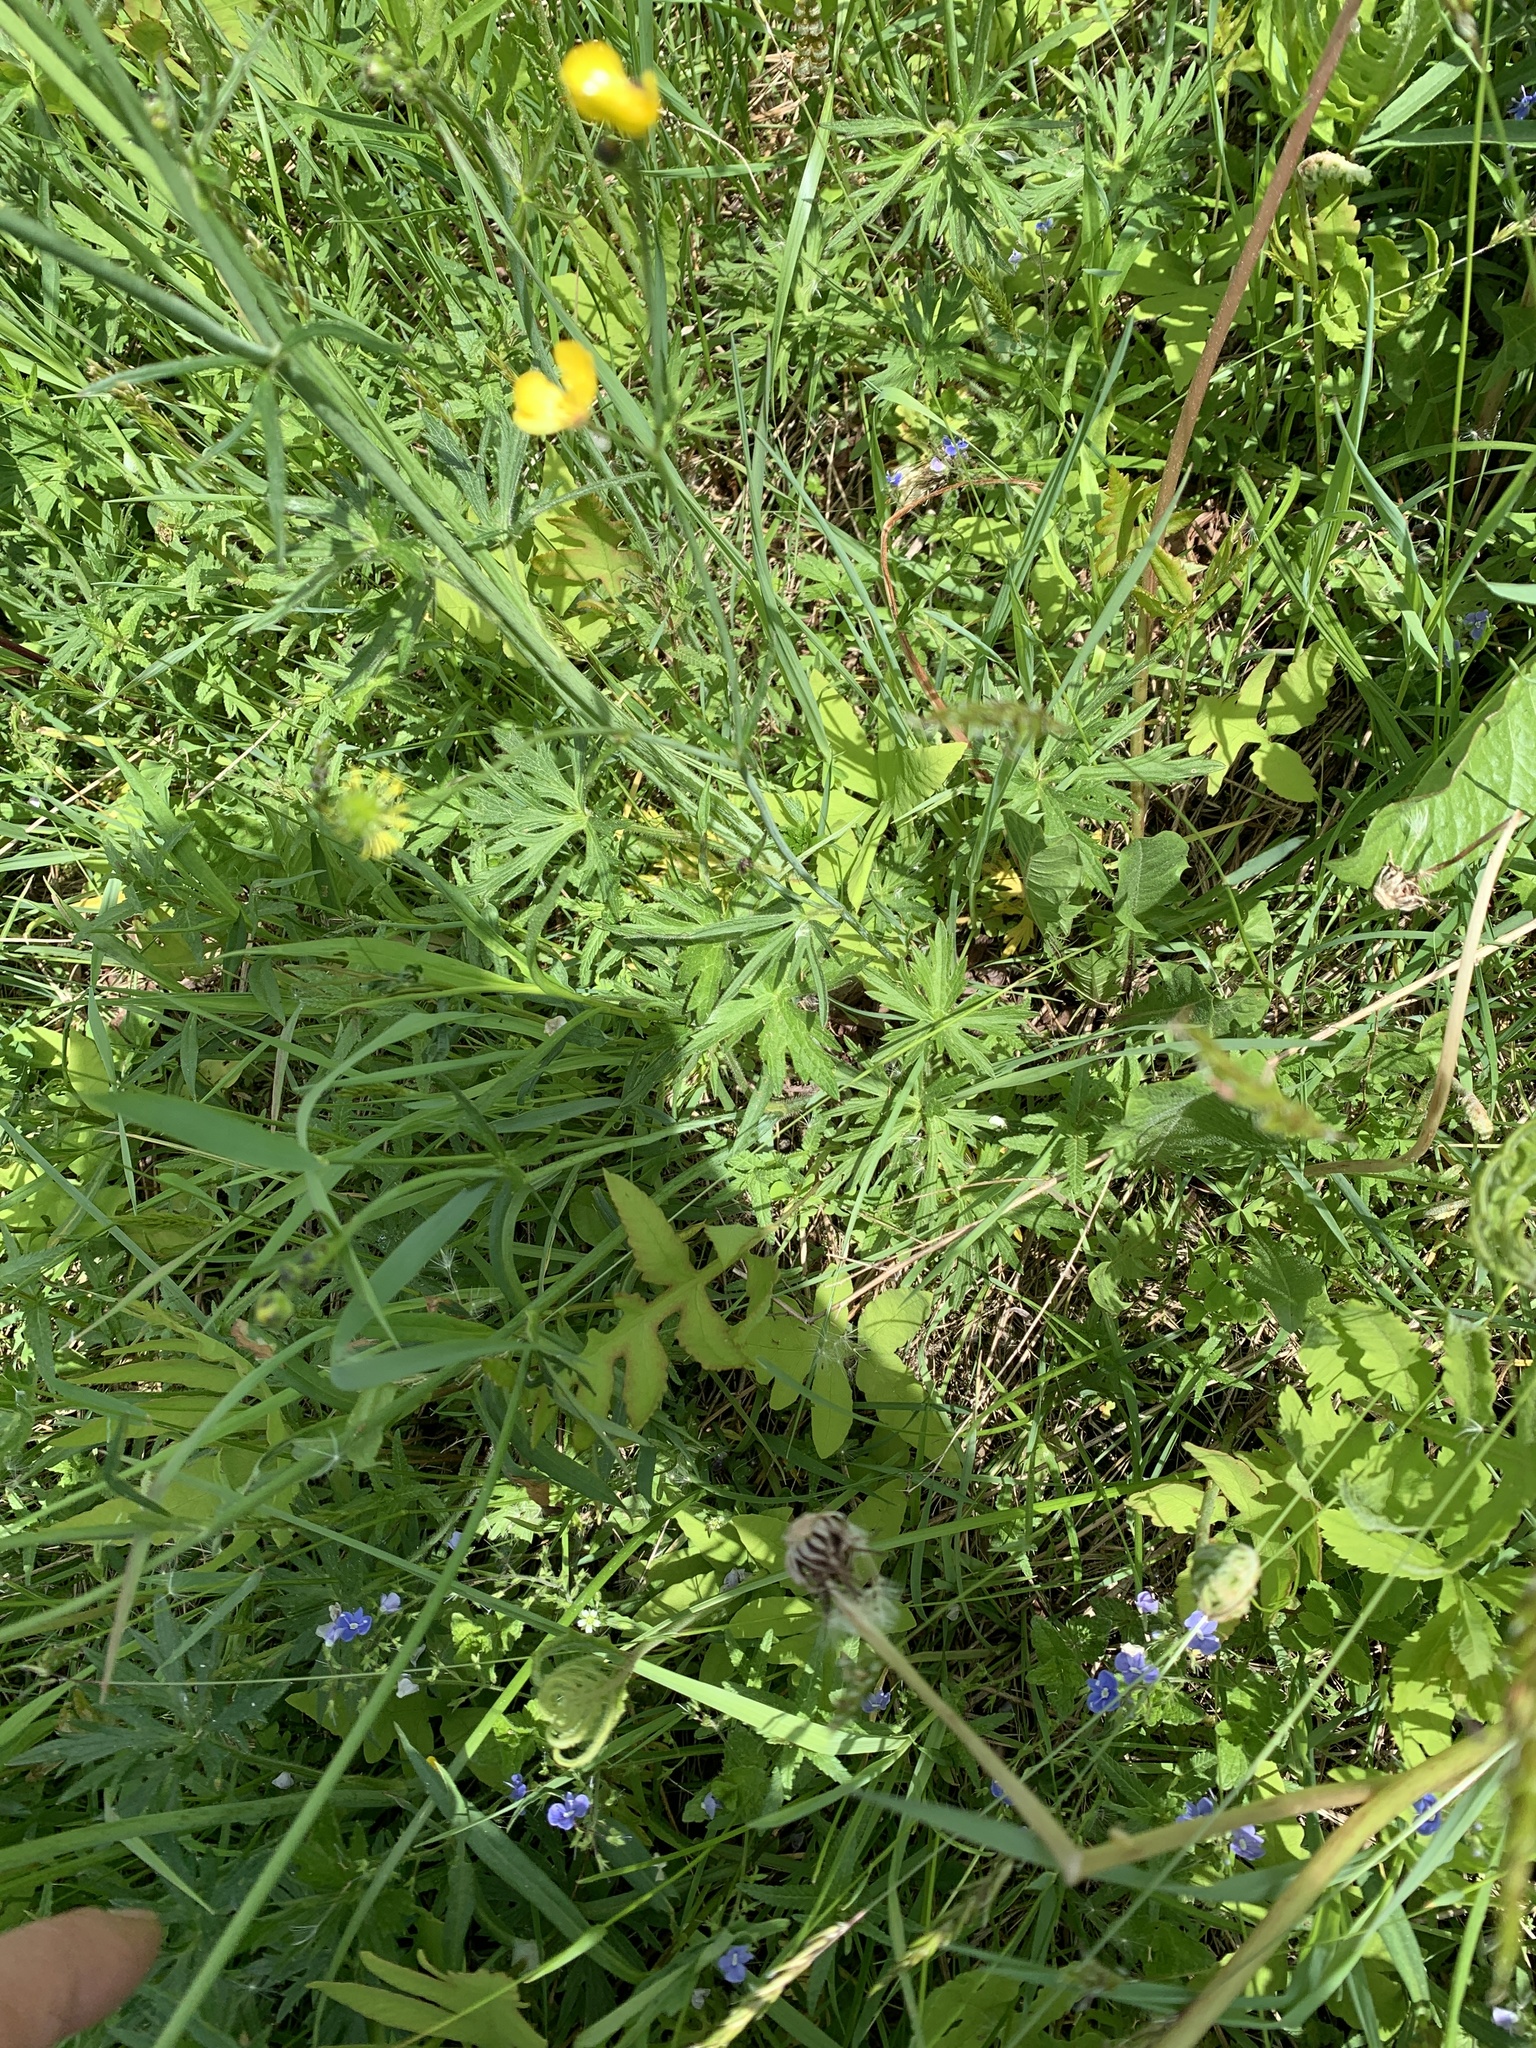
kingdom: Plantae
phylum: Tracheophyta
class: Magnoliopsida
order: Ranunculales
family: Ranunculaceae
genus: Ranunculus
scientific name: Ranunculus acris
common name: Meadow buttercup
